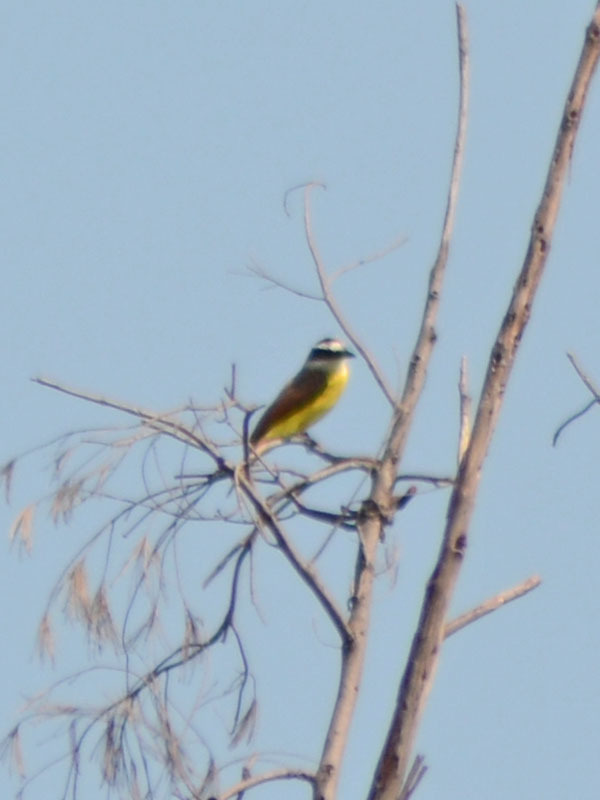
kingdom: Animalia
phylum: Chordata
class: Aves
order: Passeriformes
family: Tyrannidae
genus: Pitangus
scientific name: Pitangus sulphuratus
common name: Great kiskadee
